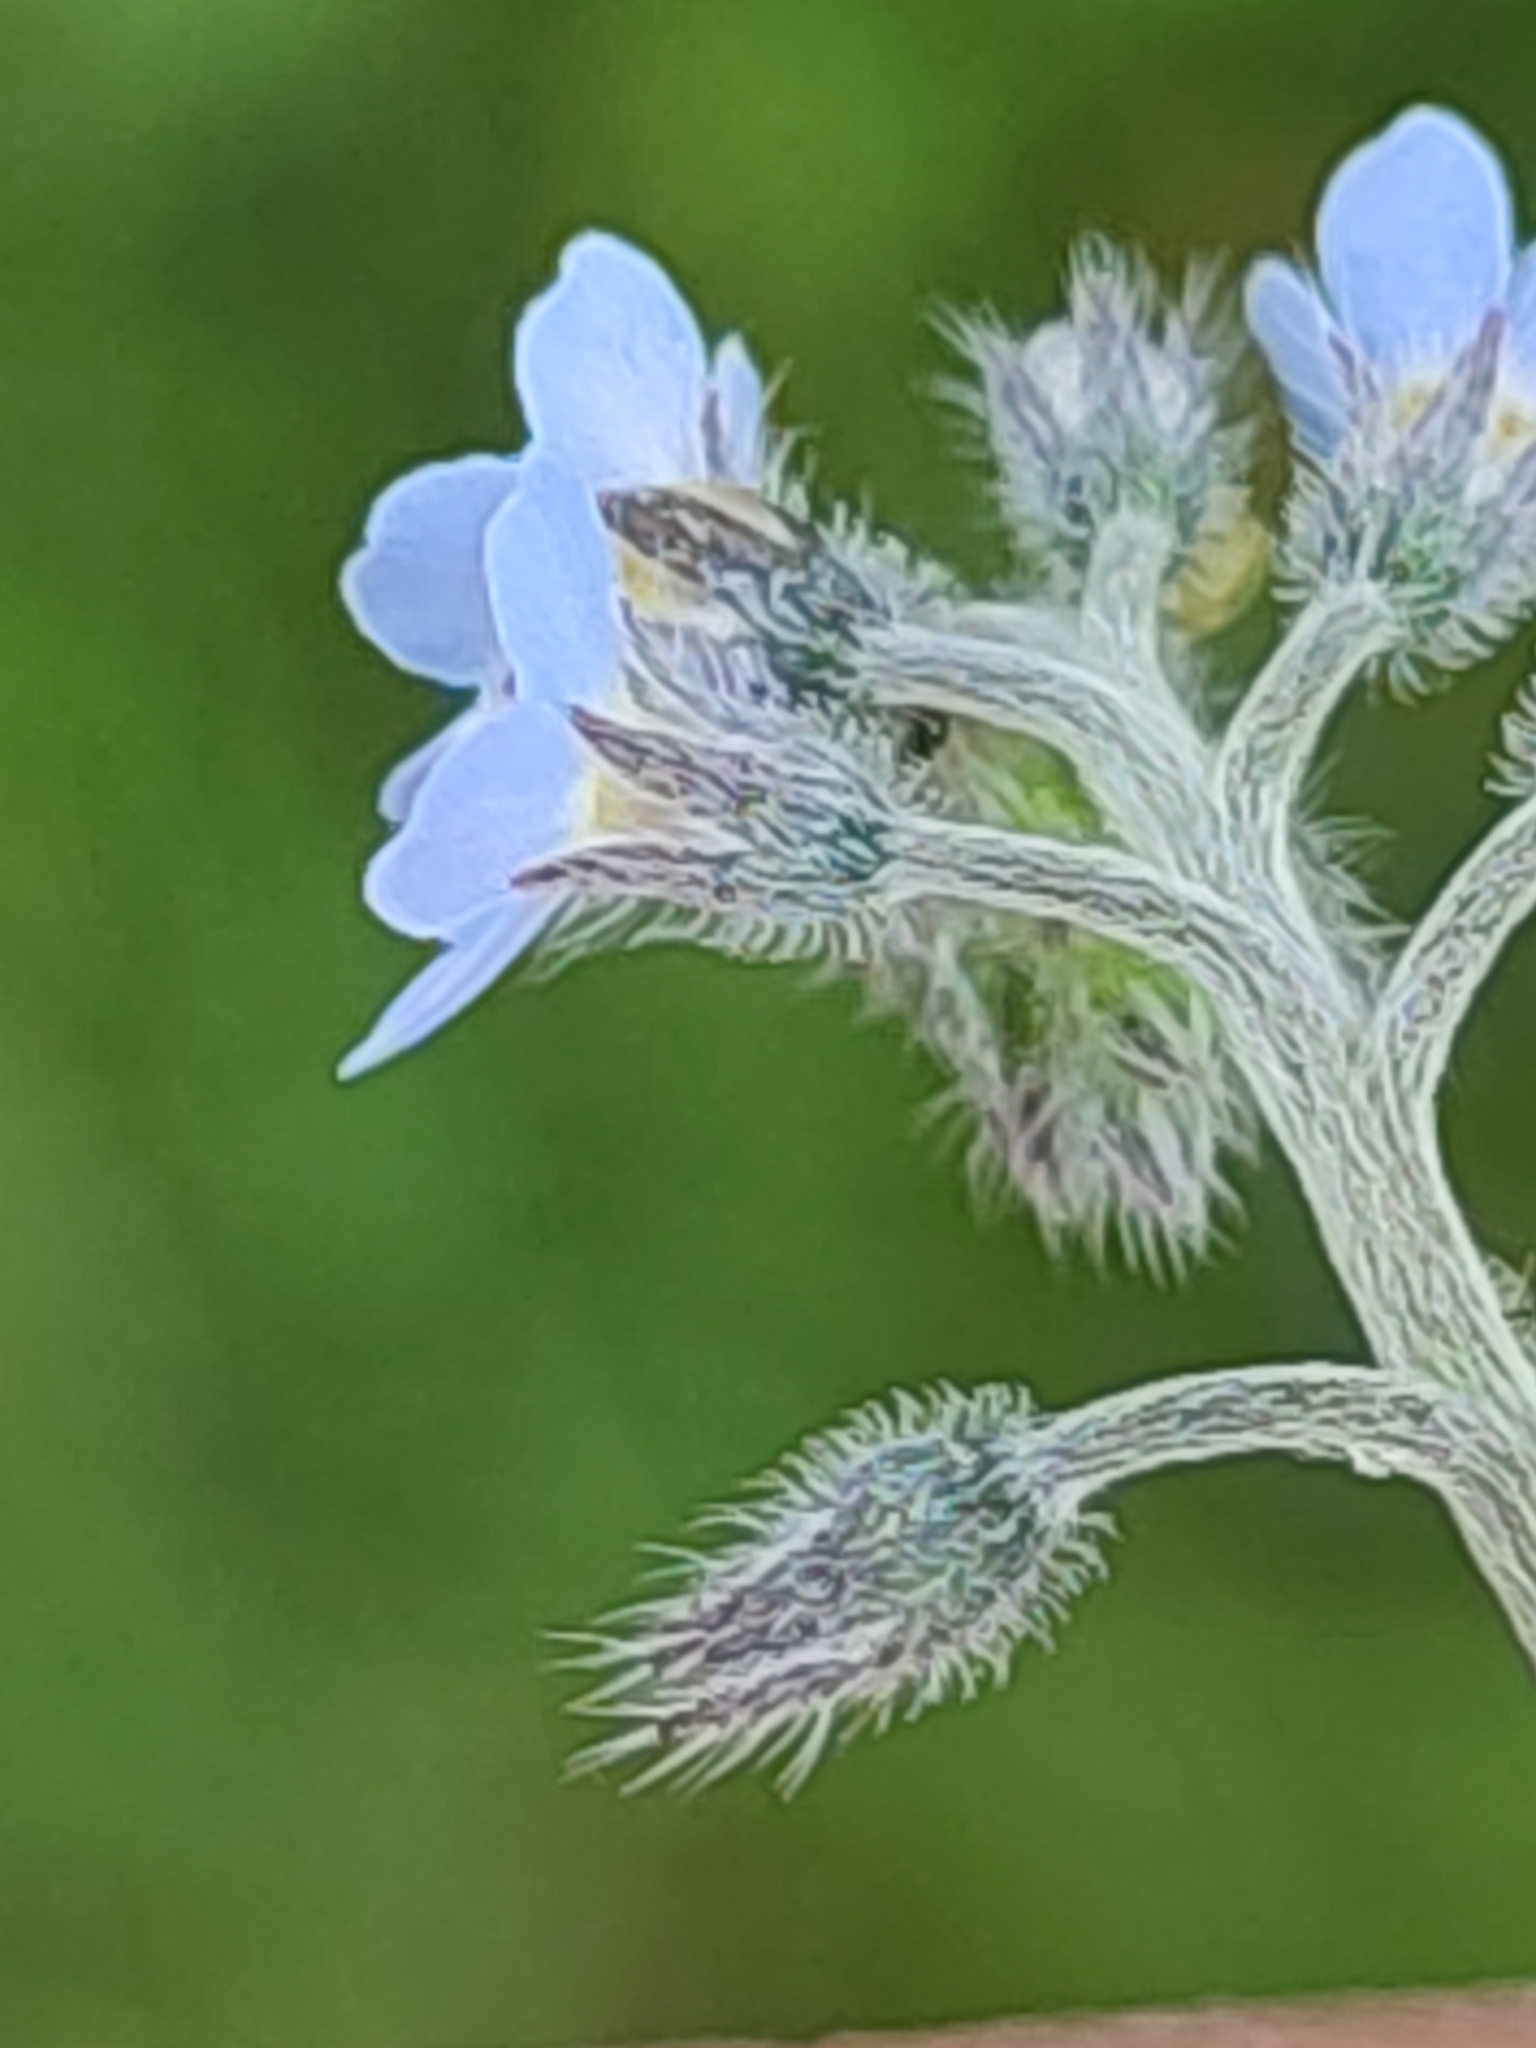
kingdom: Plantae
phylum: Tracheophyta
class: Magnoliopsida
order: Boraginales
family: Boraginaceae
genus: Myosotis
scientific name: Myosotis arvensis
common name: Field forget-me-not
